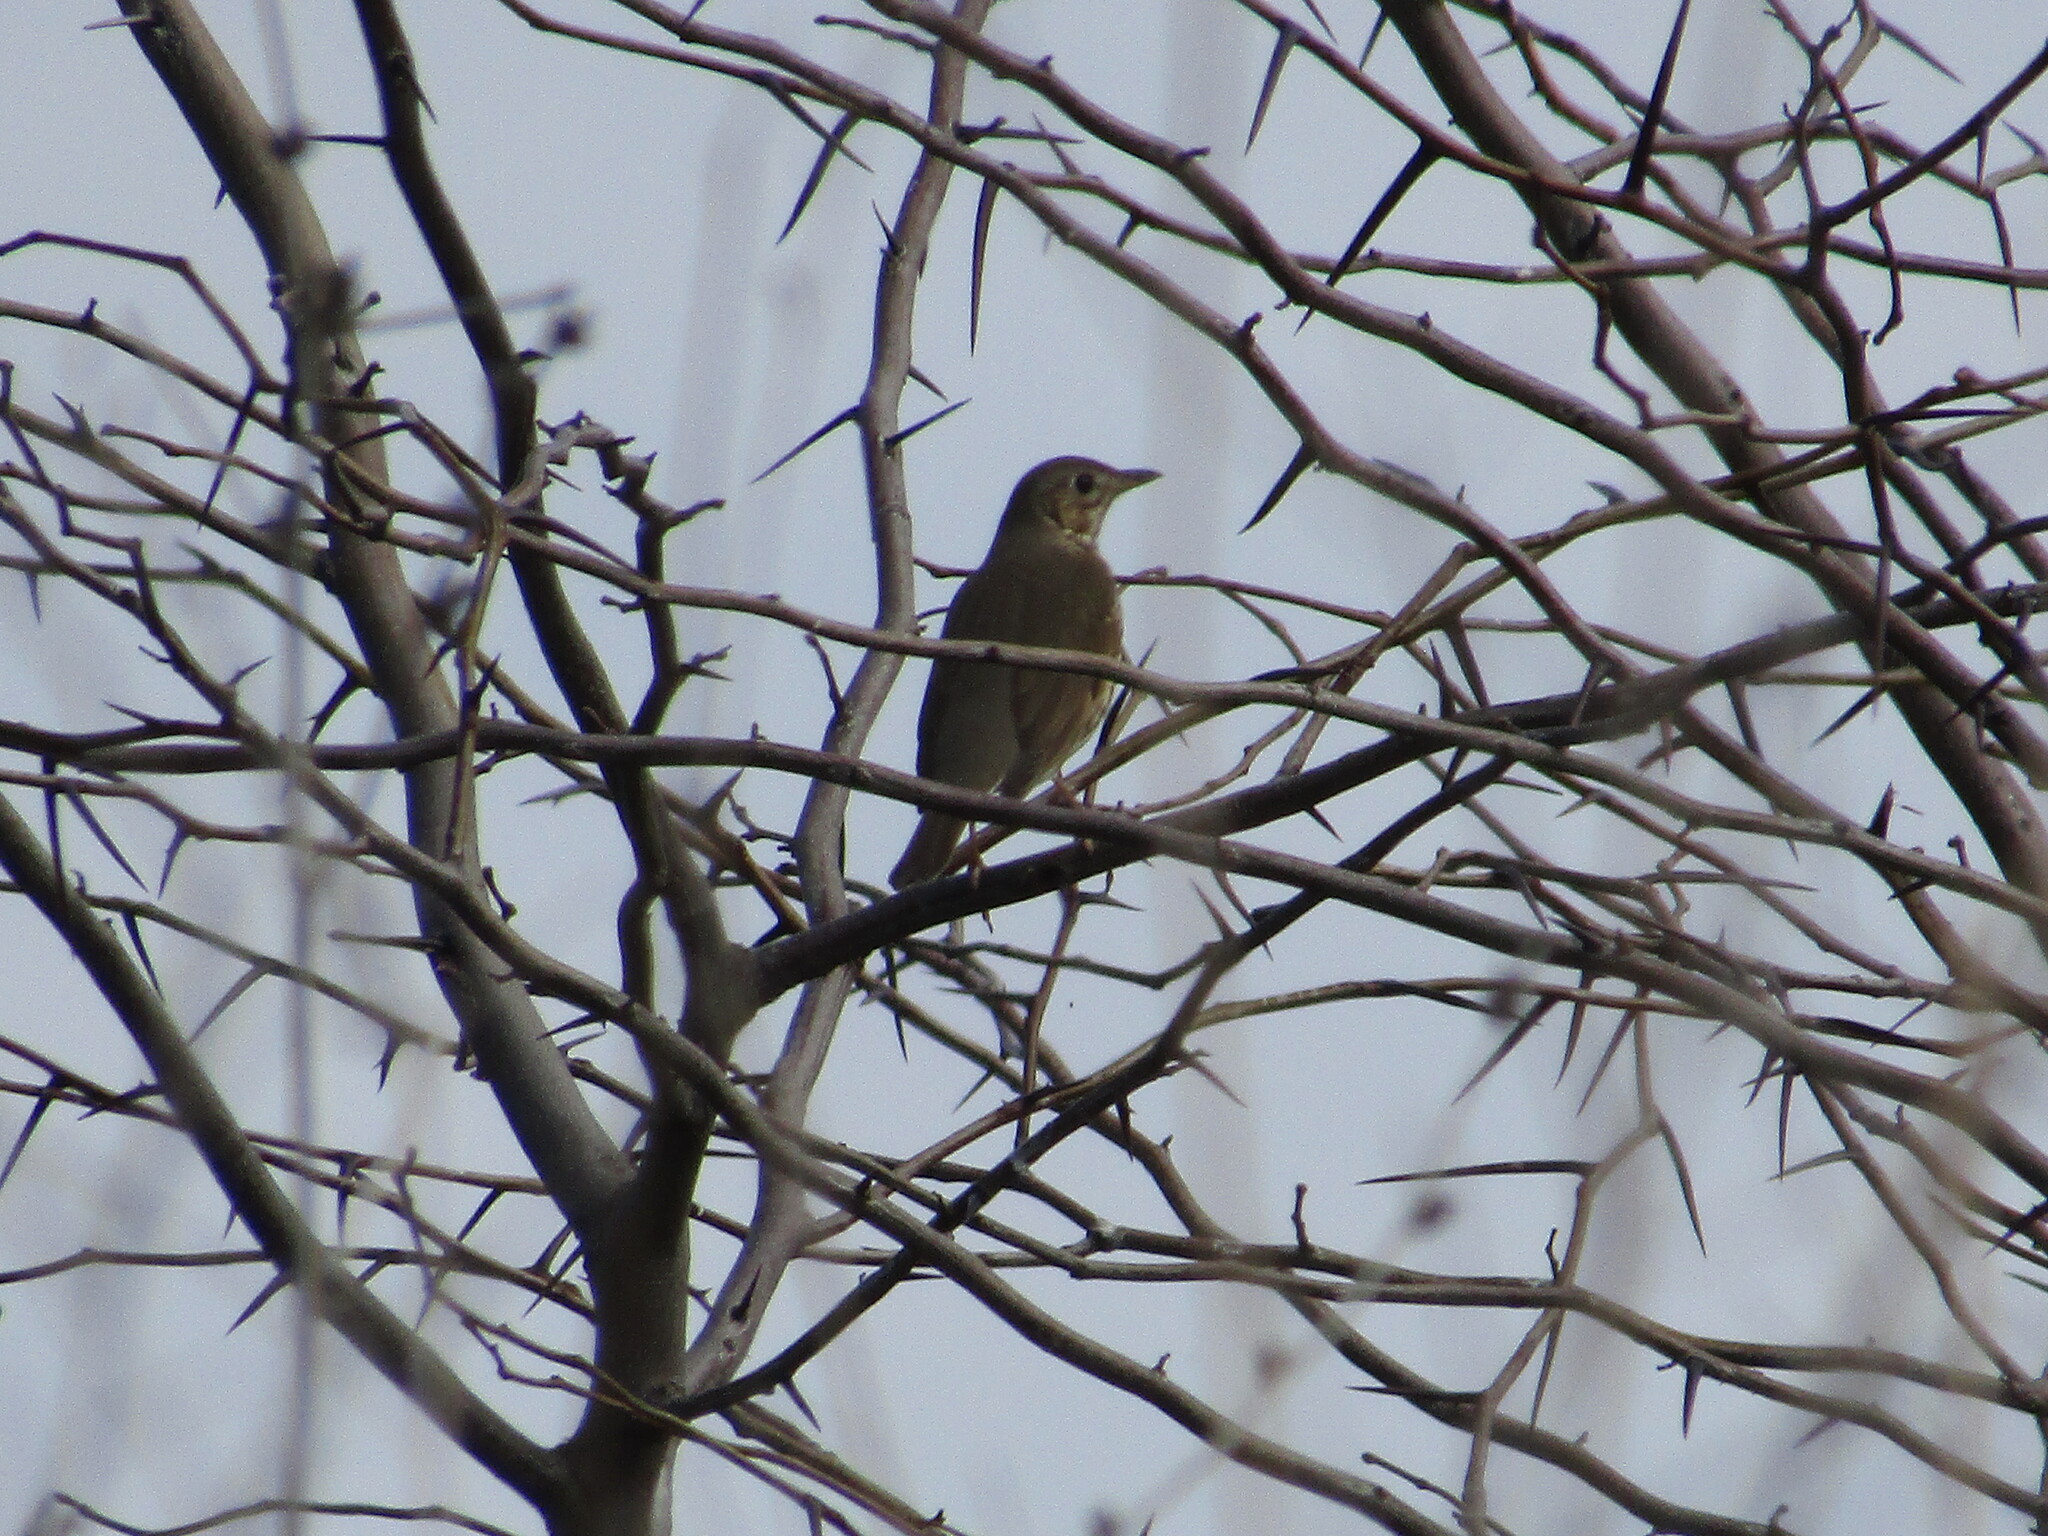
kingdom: Animalia
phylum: Chordata
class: Aves
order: Passeriformes
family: Turdidae
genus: Turdus
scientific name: Turdus philomelos
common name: Song thrush
